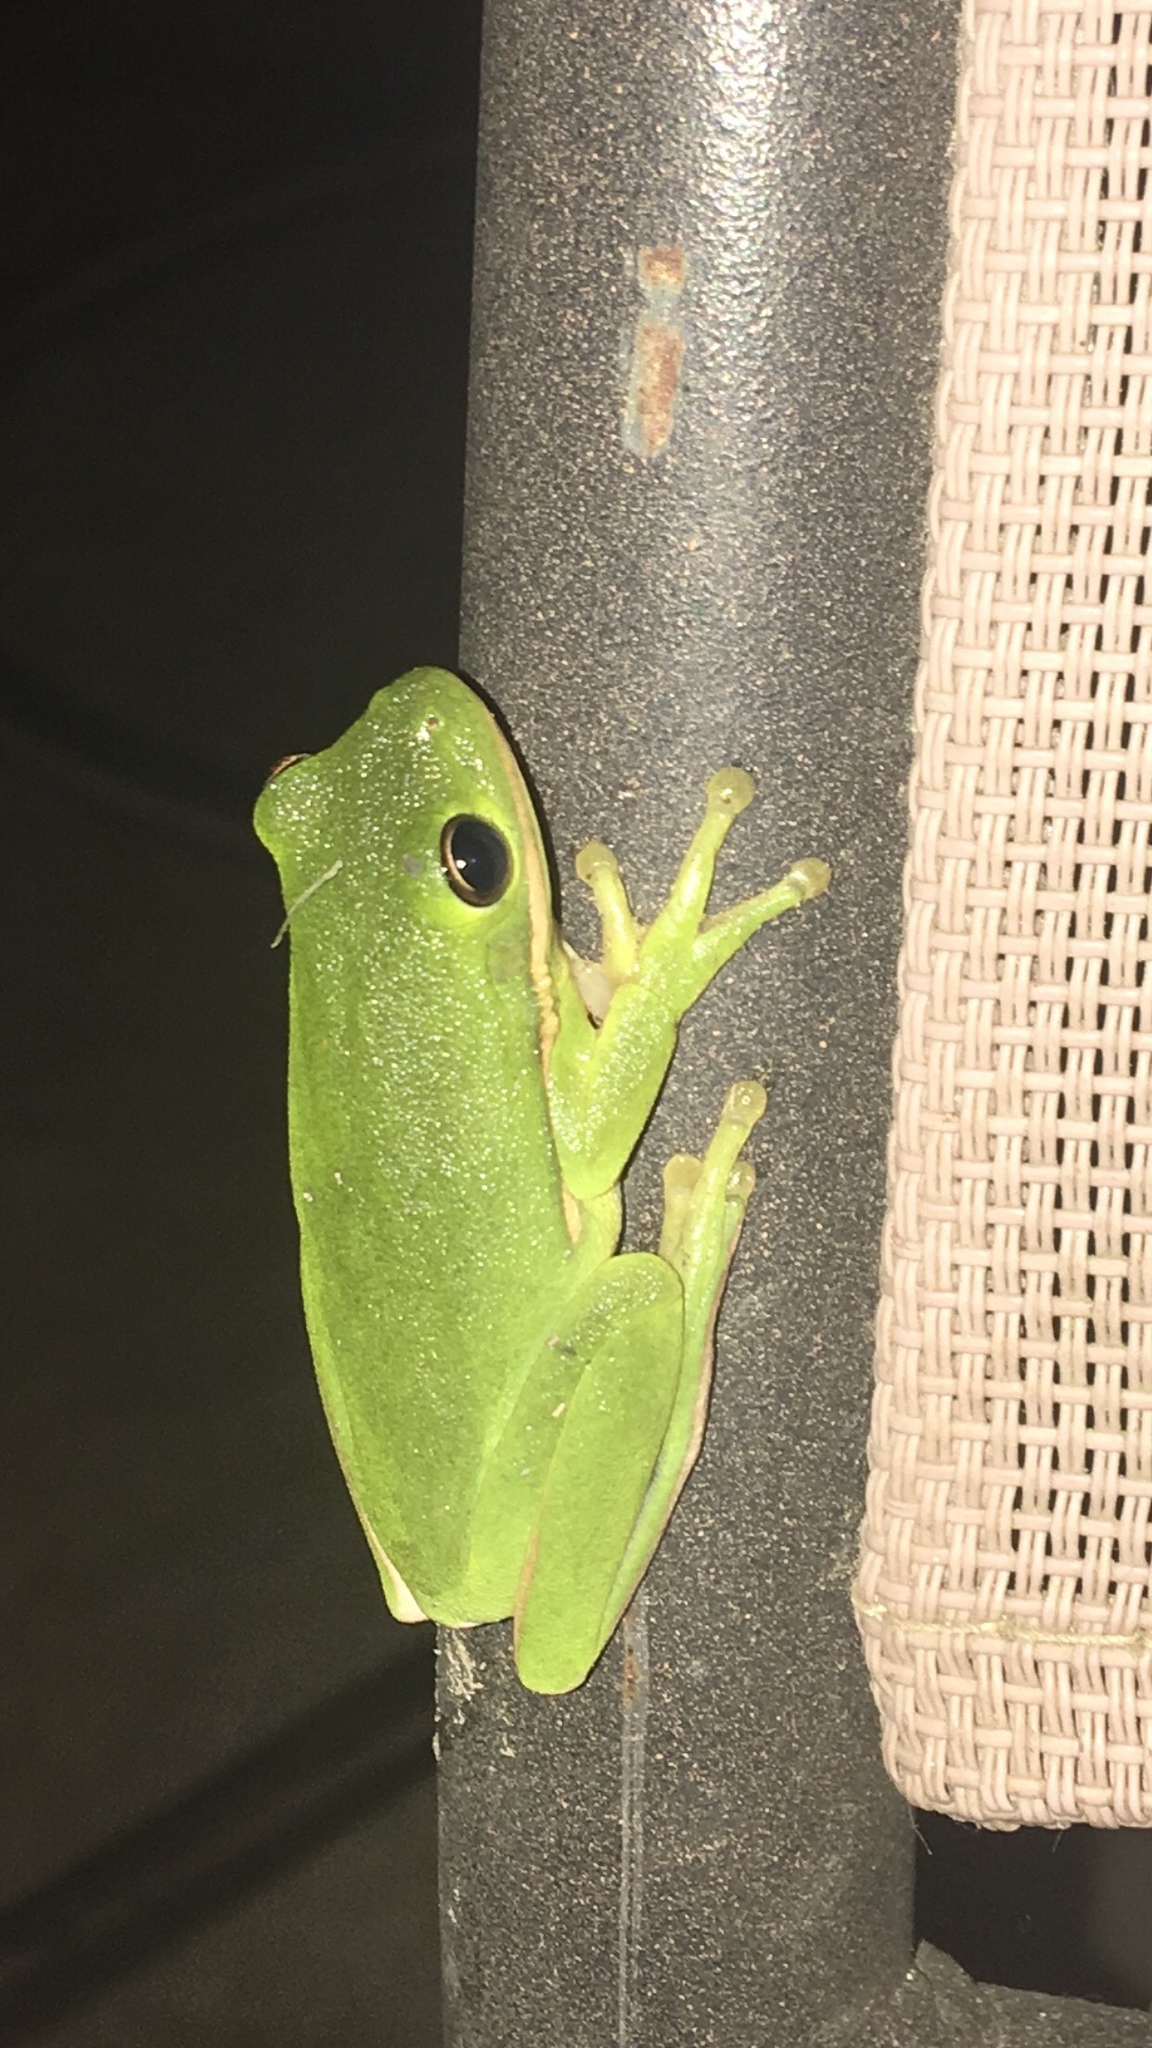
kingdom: Animalia
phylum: Chordata
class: Amphibia
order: Anura
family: Hylidae
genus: Dryophytes
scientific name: Dryophytes cinereus
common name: Green treefrog
